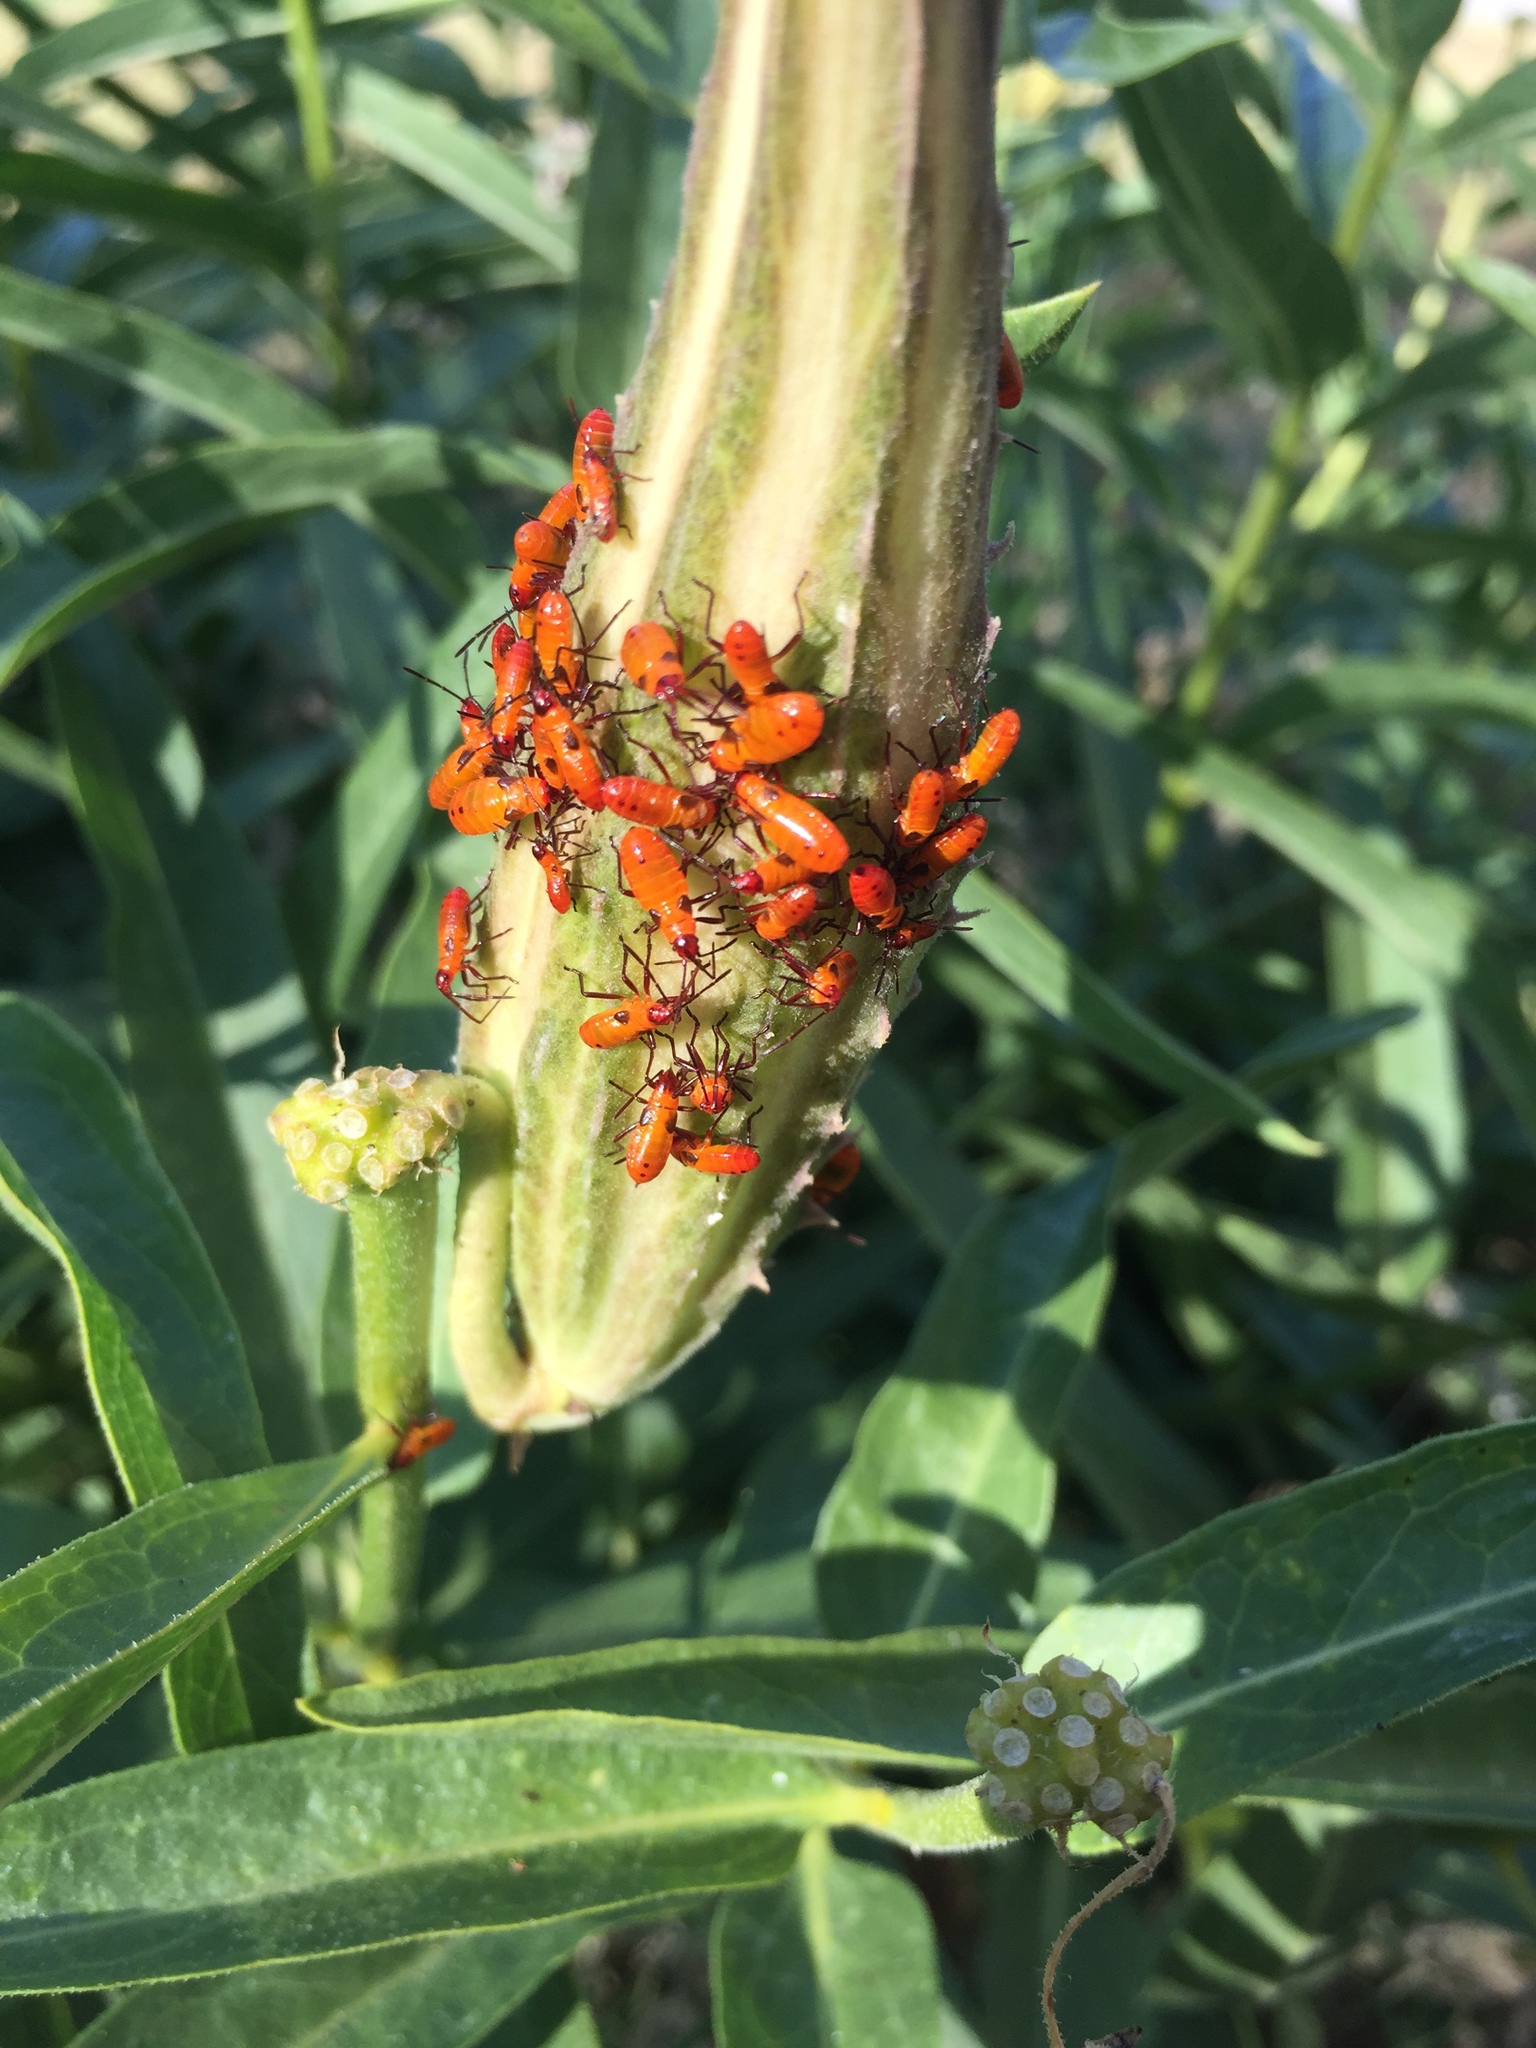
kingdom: Animalia
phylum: Arthropoda
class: Insecta
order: Hemiptera
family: Lygaeidae
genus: Oncopeltus
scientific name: Oncopeltus fasciatus
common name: Large milkweed bug
